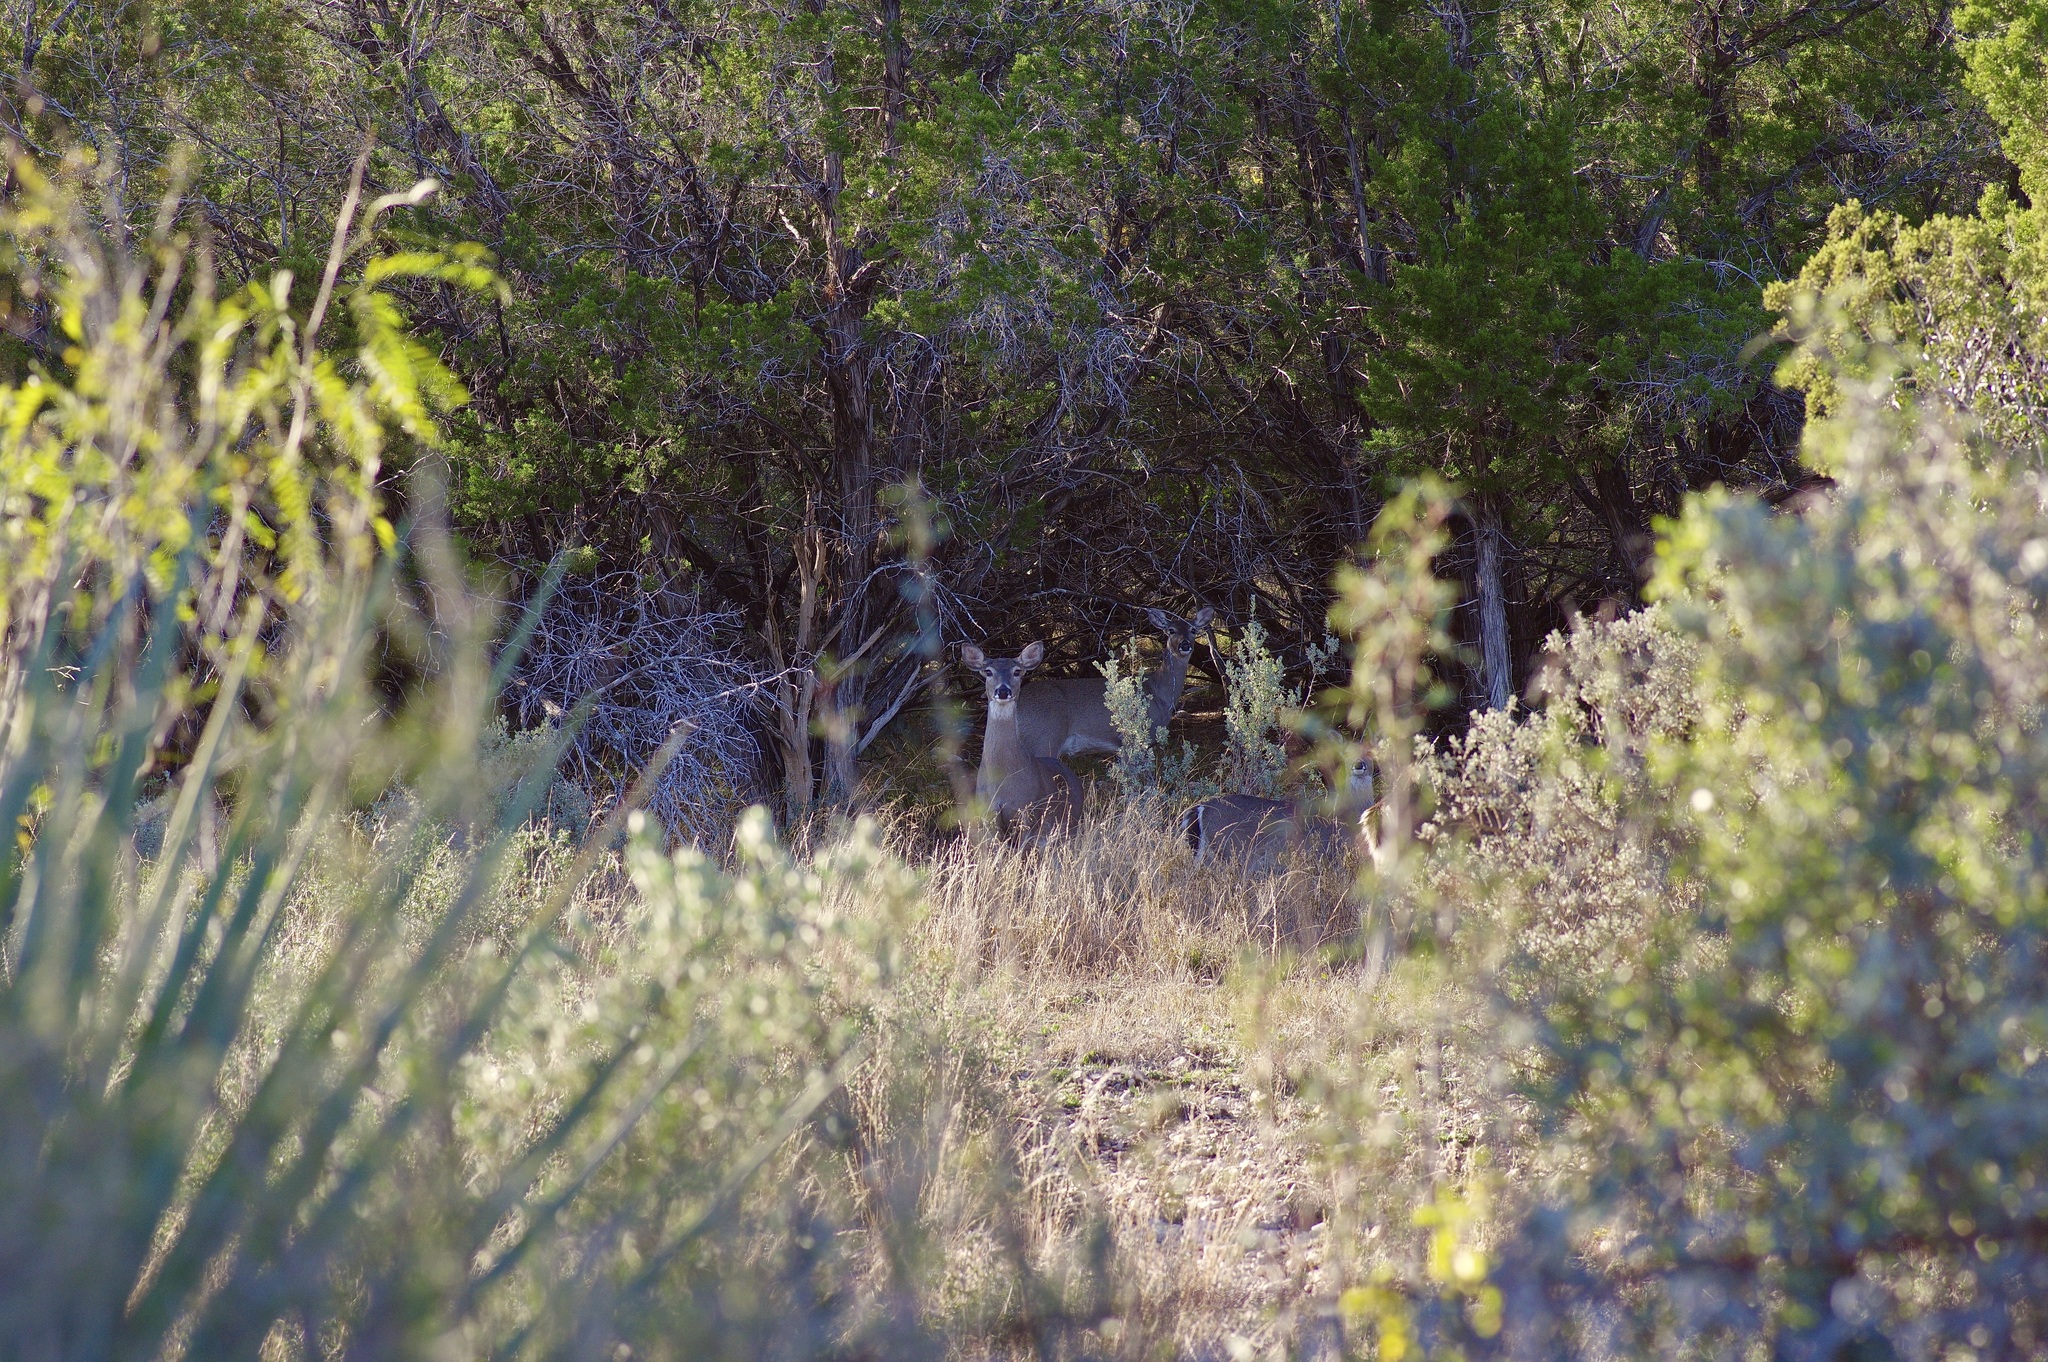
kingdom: Animalia
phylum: Chordata
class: Mammalia
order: Artiodactyla
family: Cervidae
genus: Odocoileus
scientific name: Odocoileus virginianus
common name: White-tailed deer
